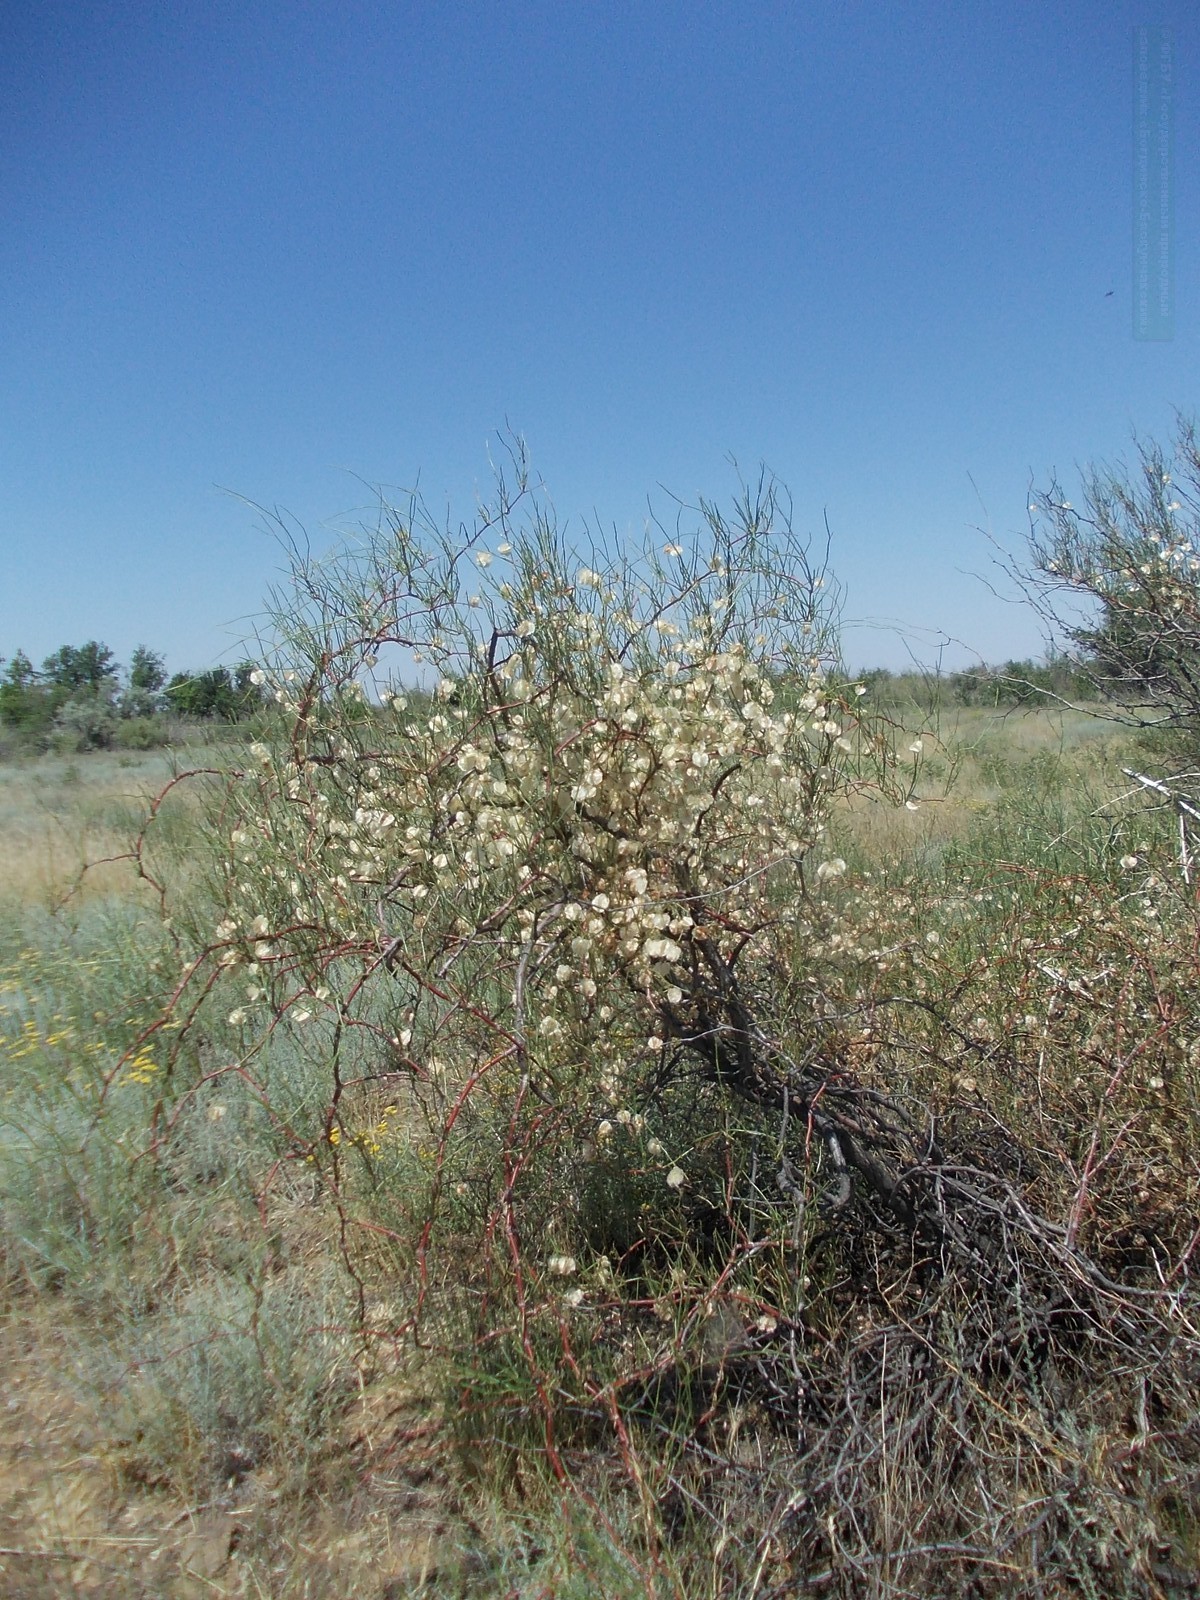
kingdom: Plantae
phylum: Tracheophyta
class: Magnoliopsida
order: Caryophyllales
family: Polygonaceae
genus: Calligonum
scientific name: Calligonum aphyllum
